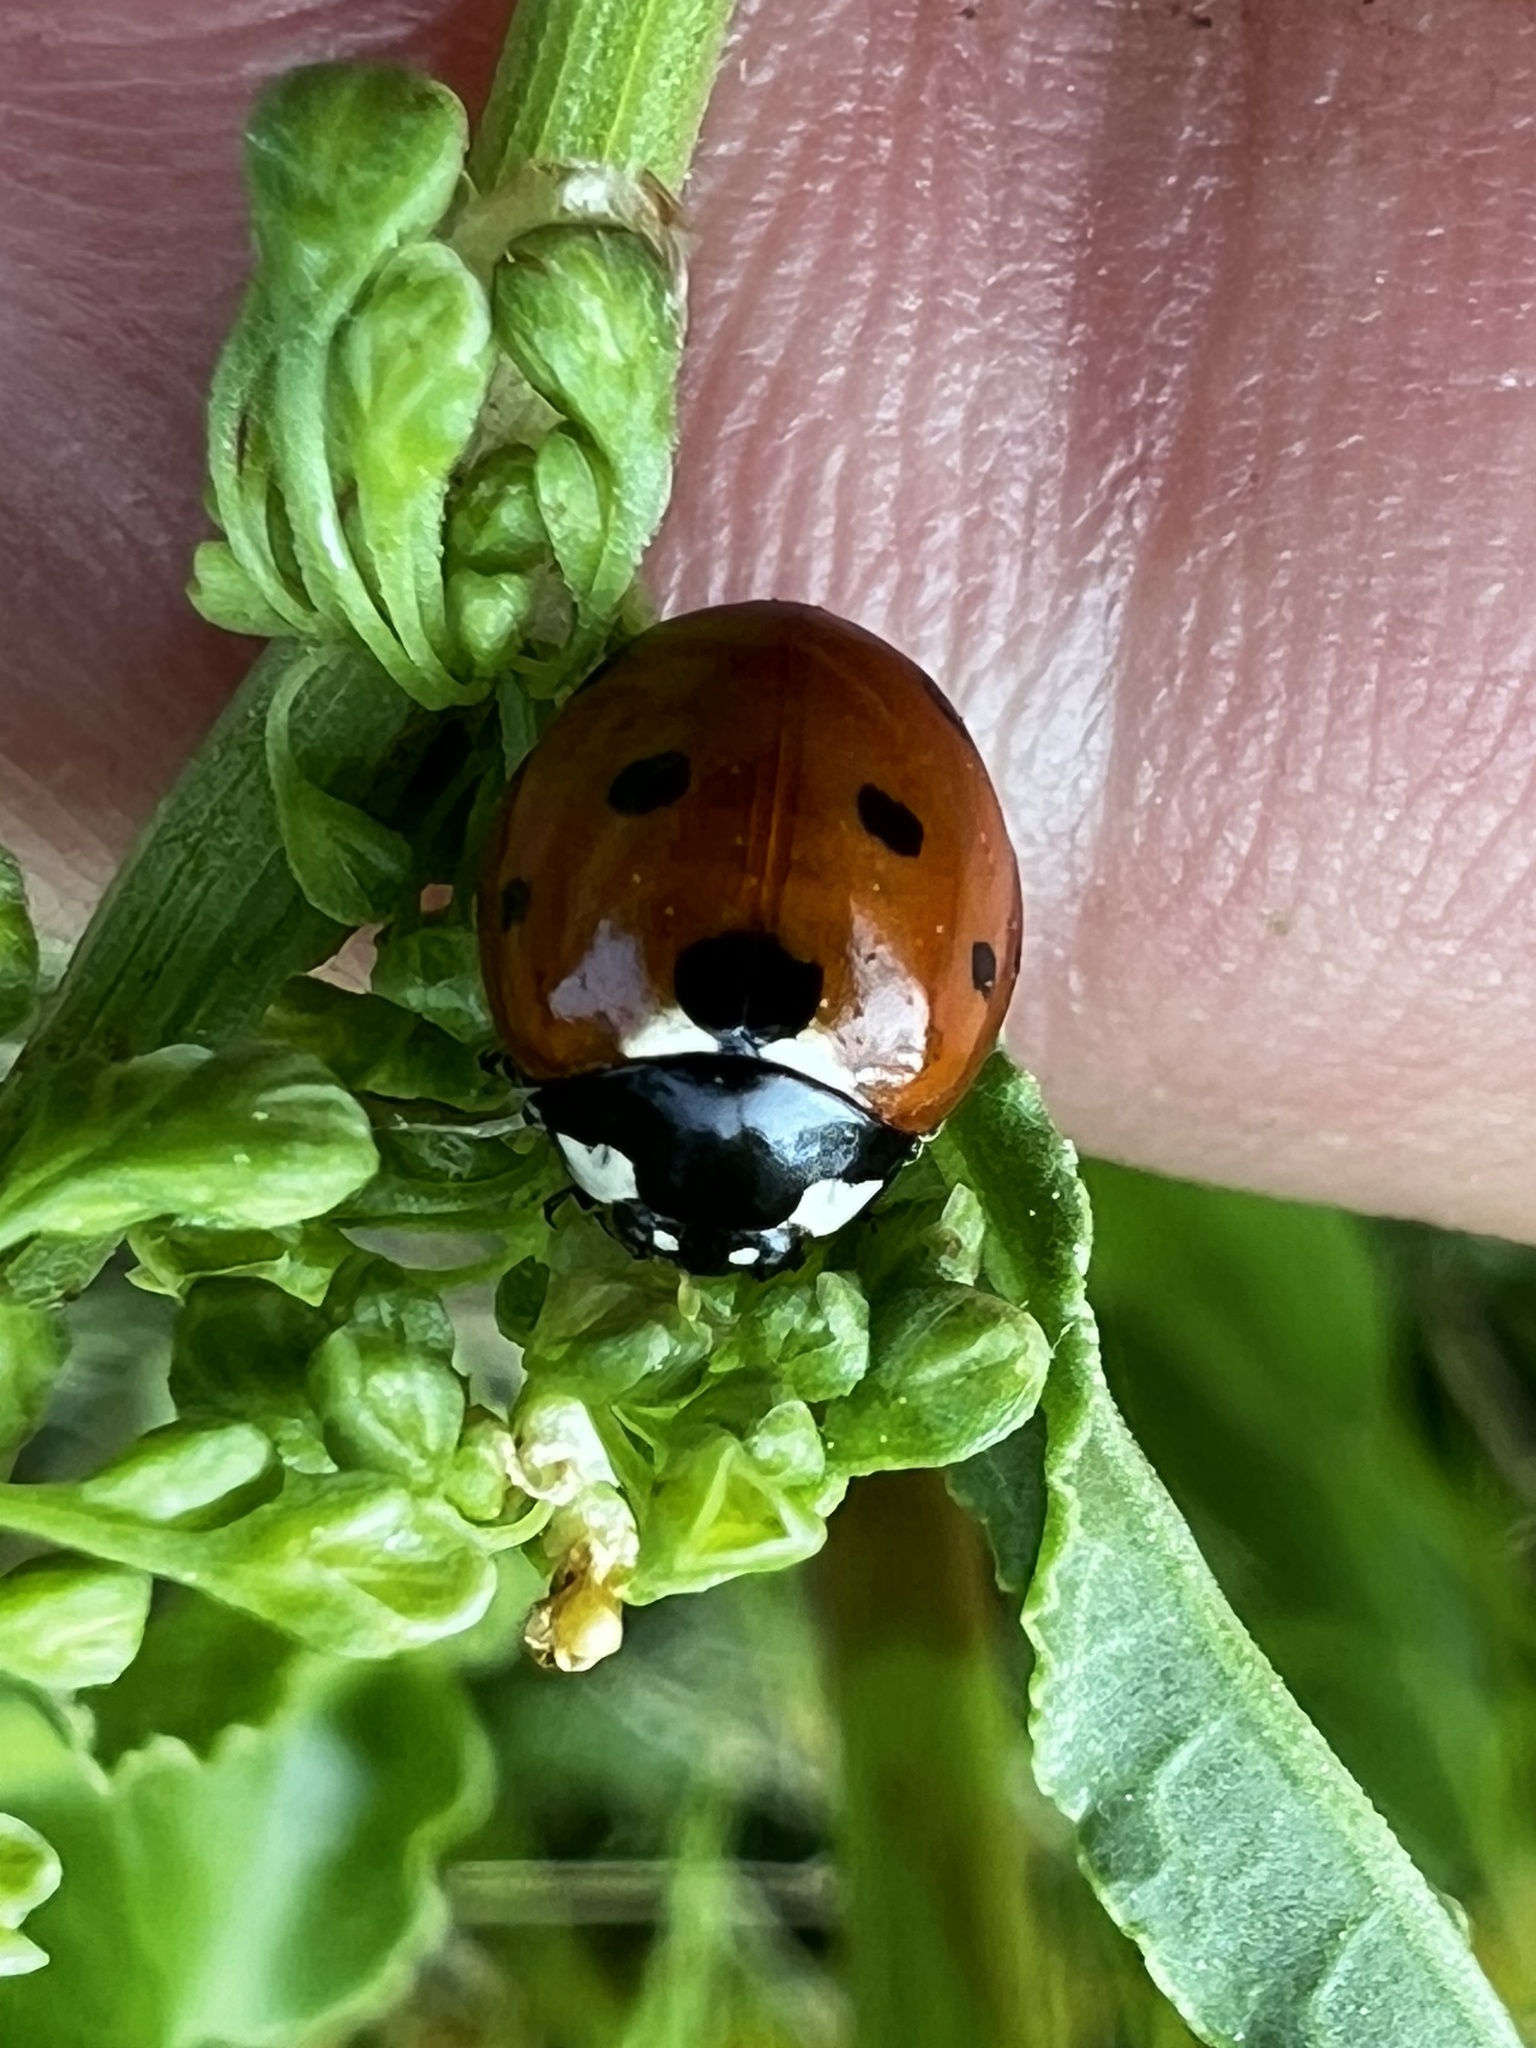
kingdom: Animalia
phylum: Arthropoda
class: Insecta
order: Coleoptera
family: Coccinellidae
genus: Coccinella
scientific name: Coccinella septempunctata
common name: Sevenspotted lady beetle
